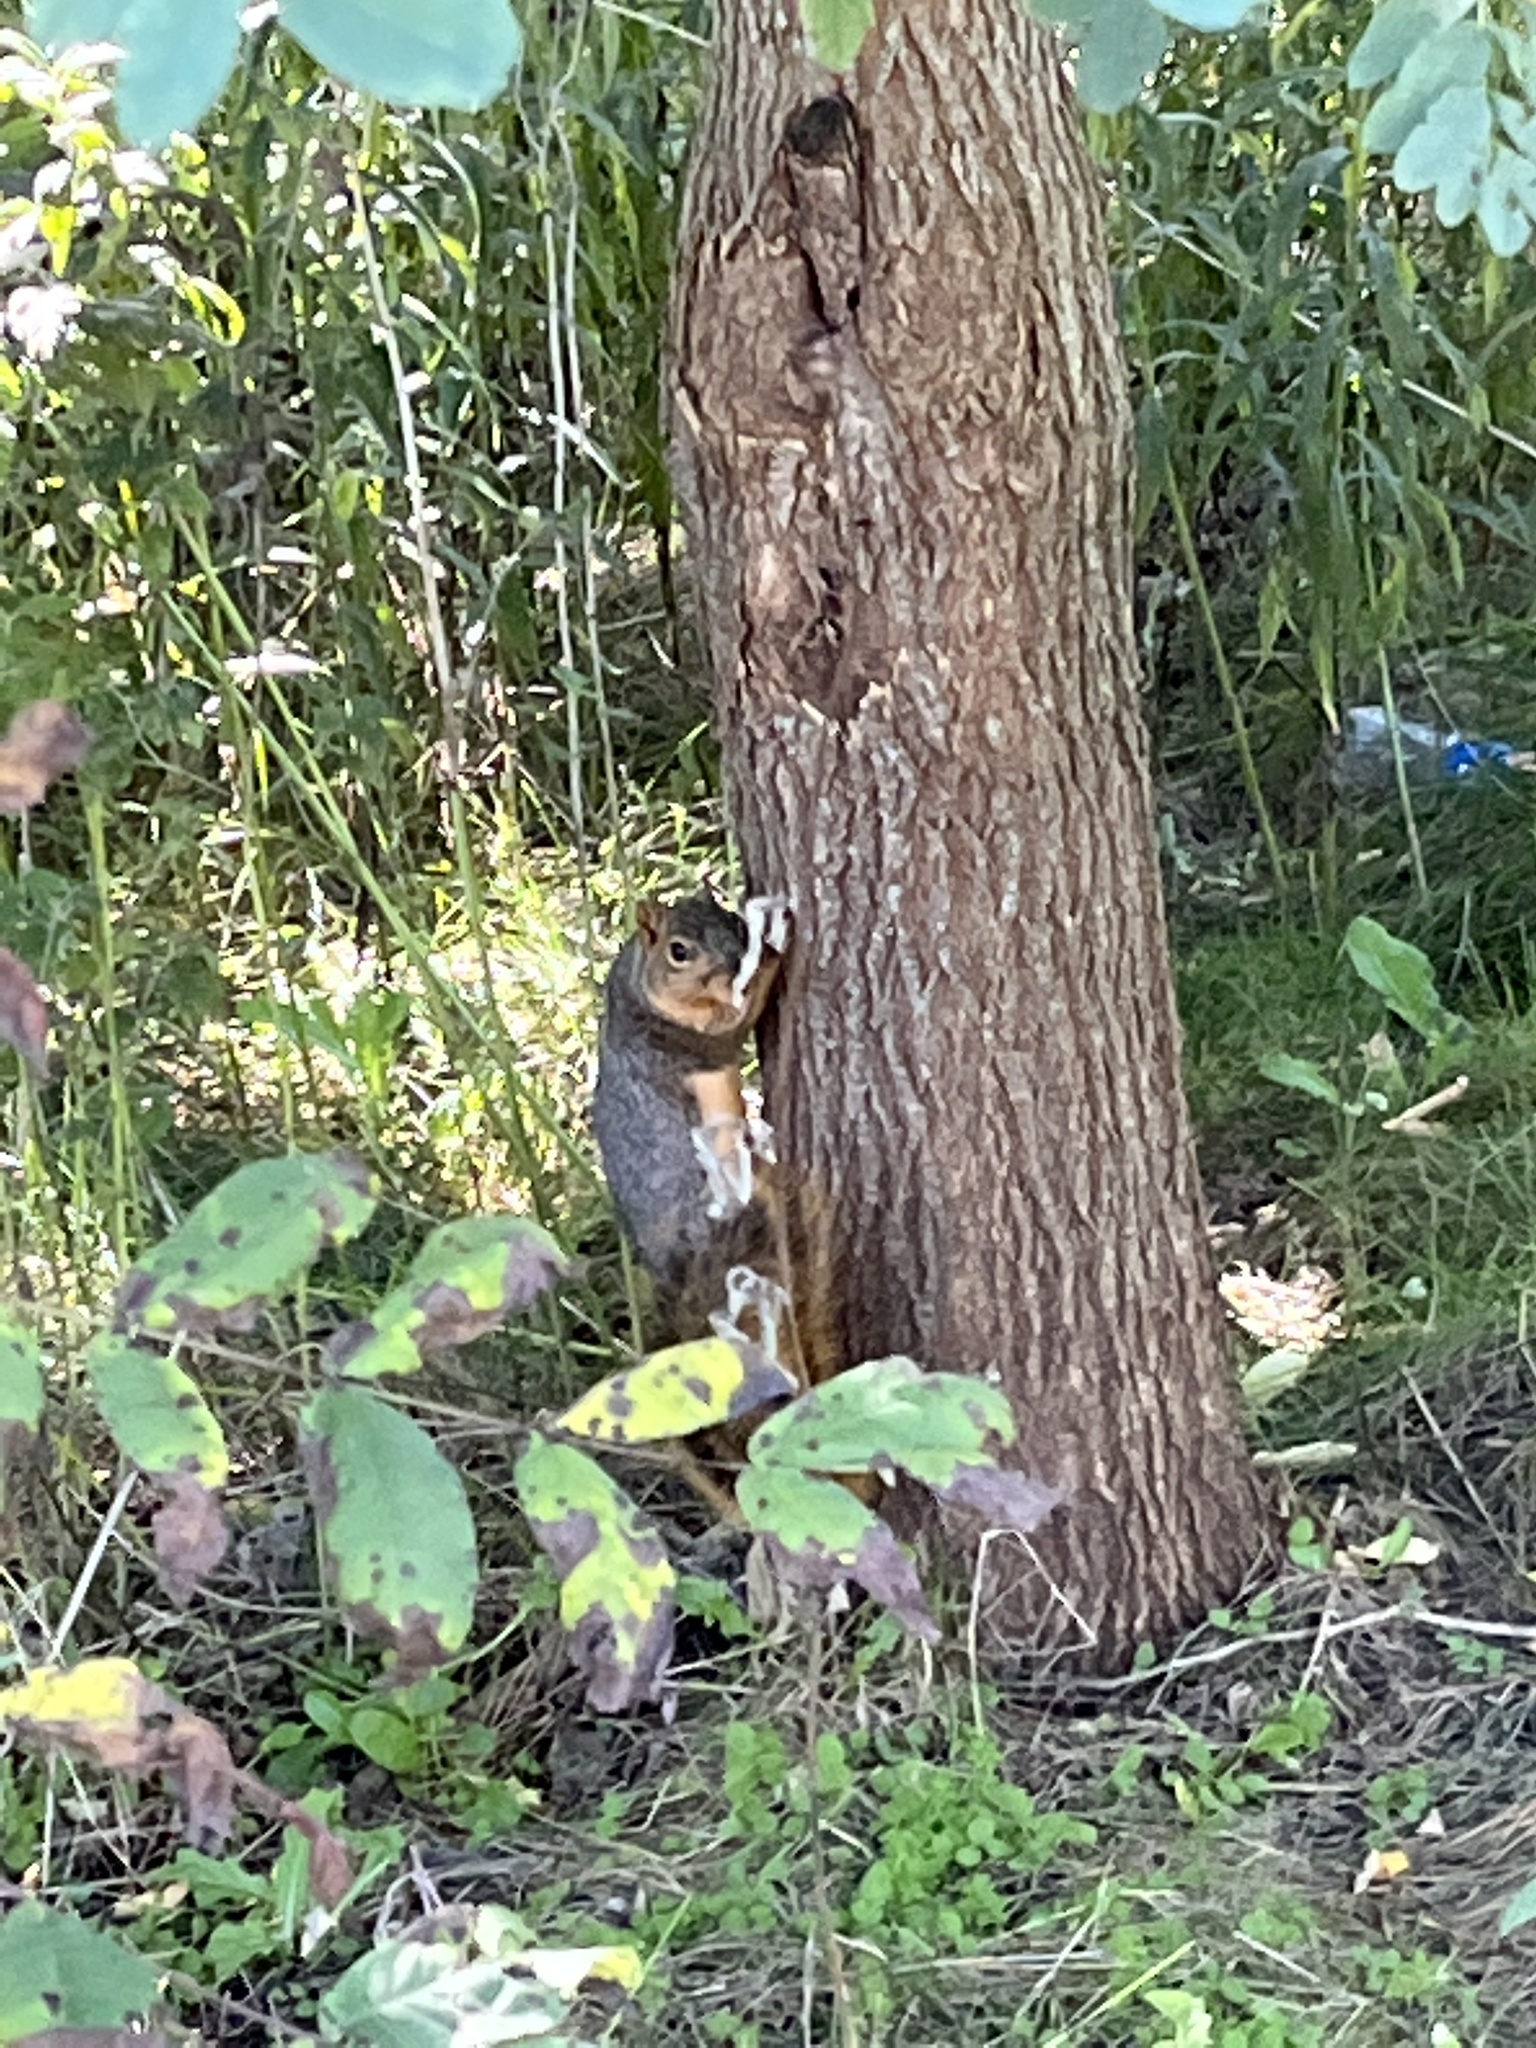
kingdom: Animalia
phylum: Chordata
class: Mammalia
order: Rodentia
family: Sciuridae
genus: Sciurus
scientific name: Sciurus niger
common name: Fox squirrel
